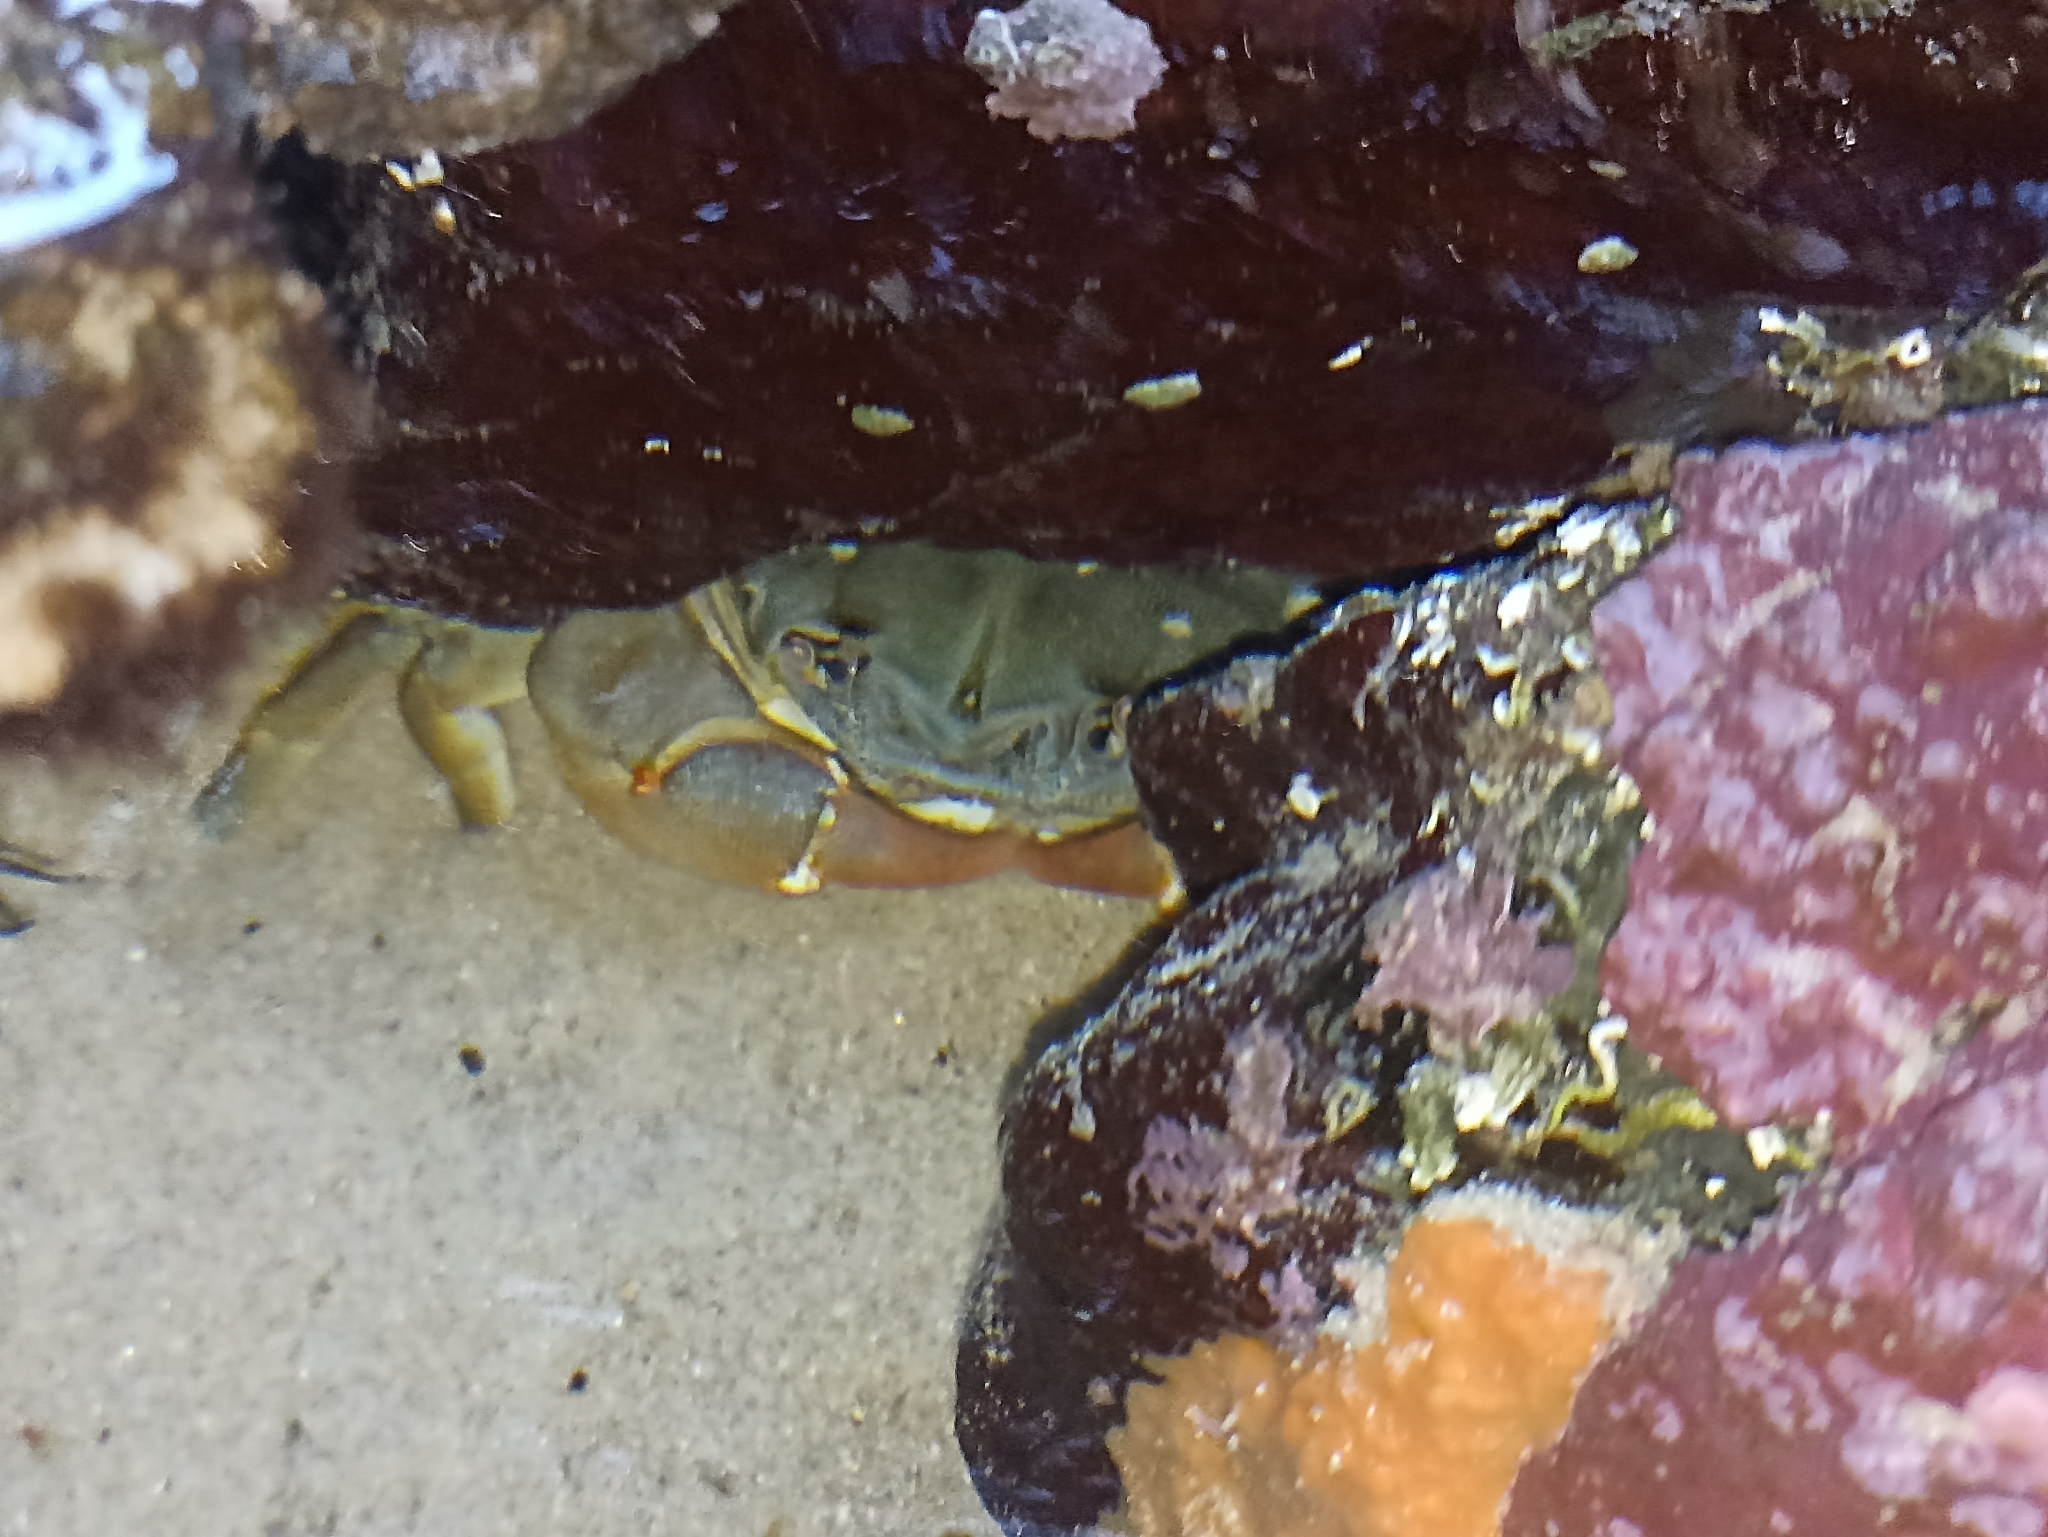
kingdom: Animalia
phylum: Arthropoda
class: Malacostraca
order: Decapoda
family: Plagusiidae
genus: Davusia
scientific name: Davusia glabra
